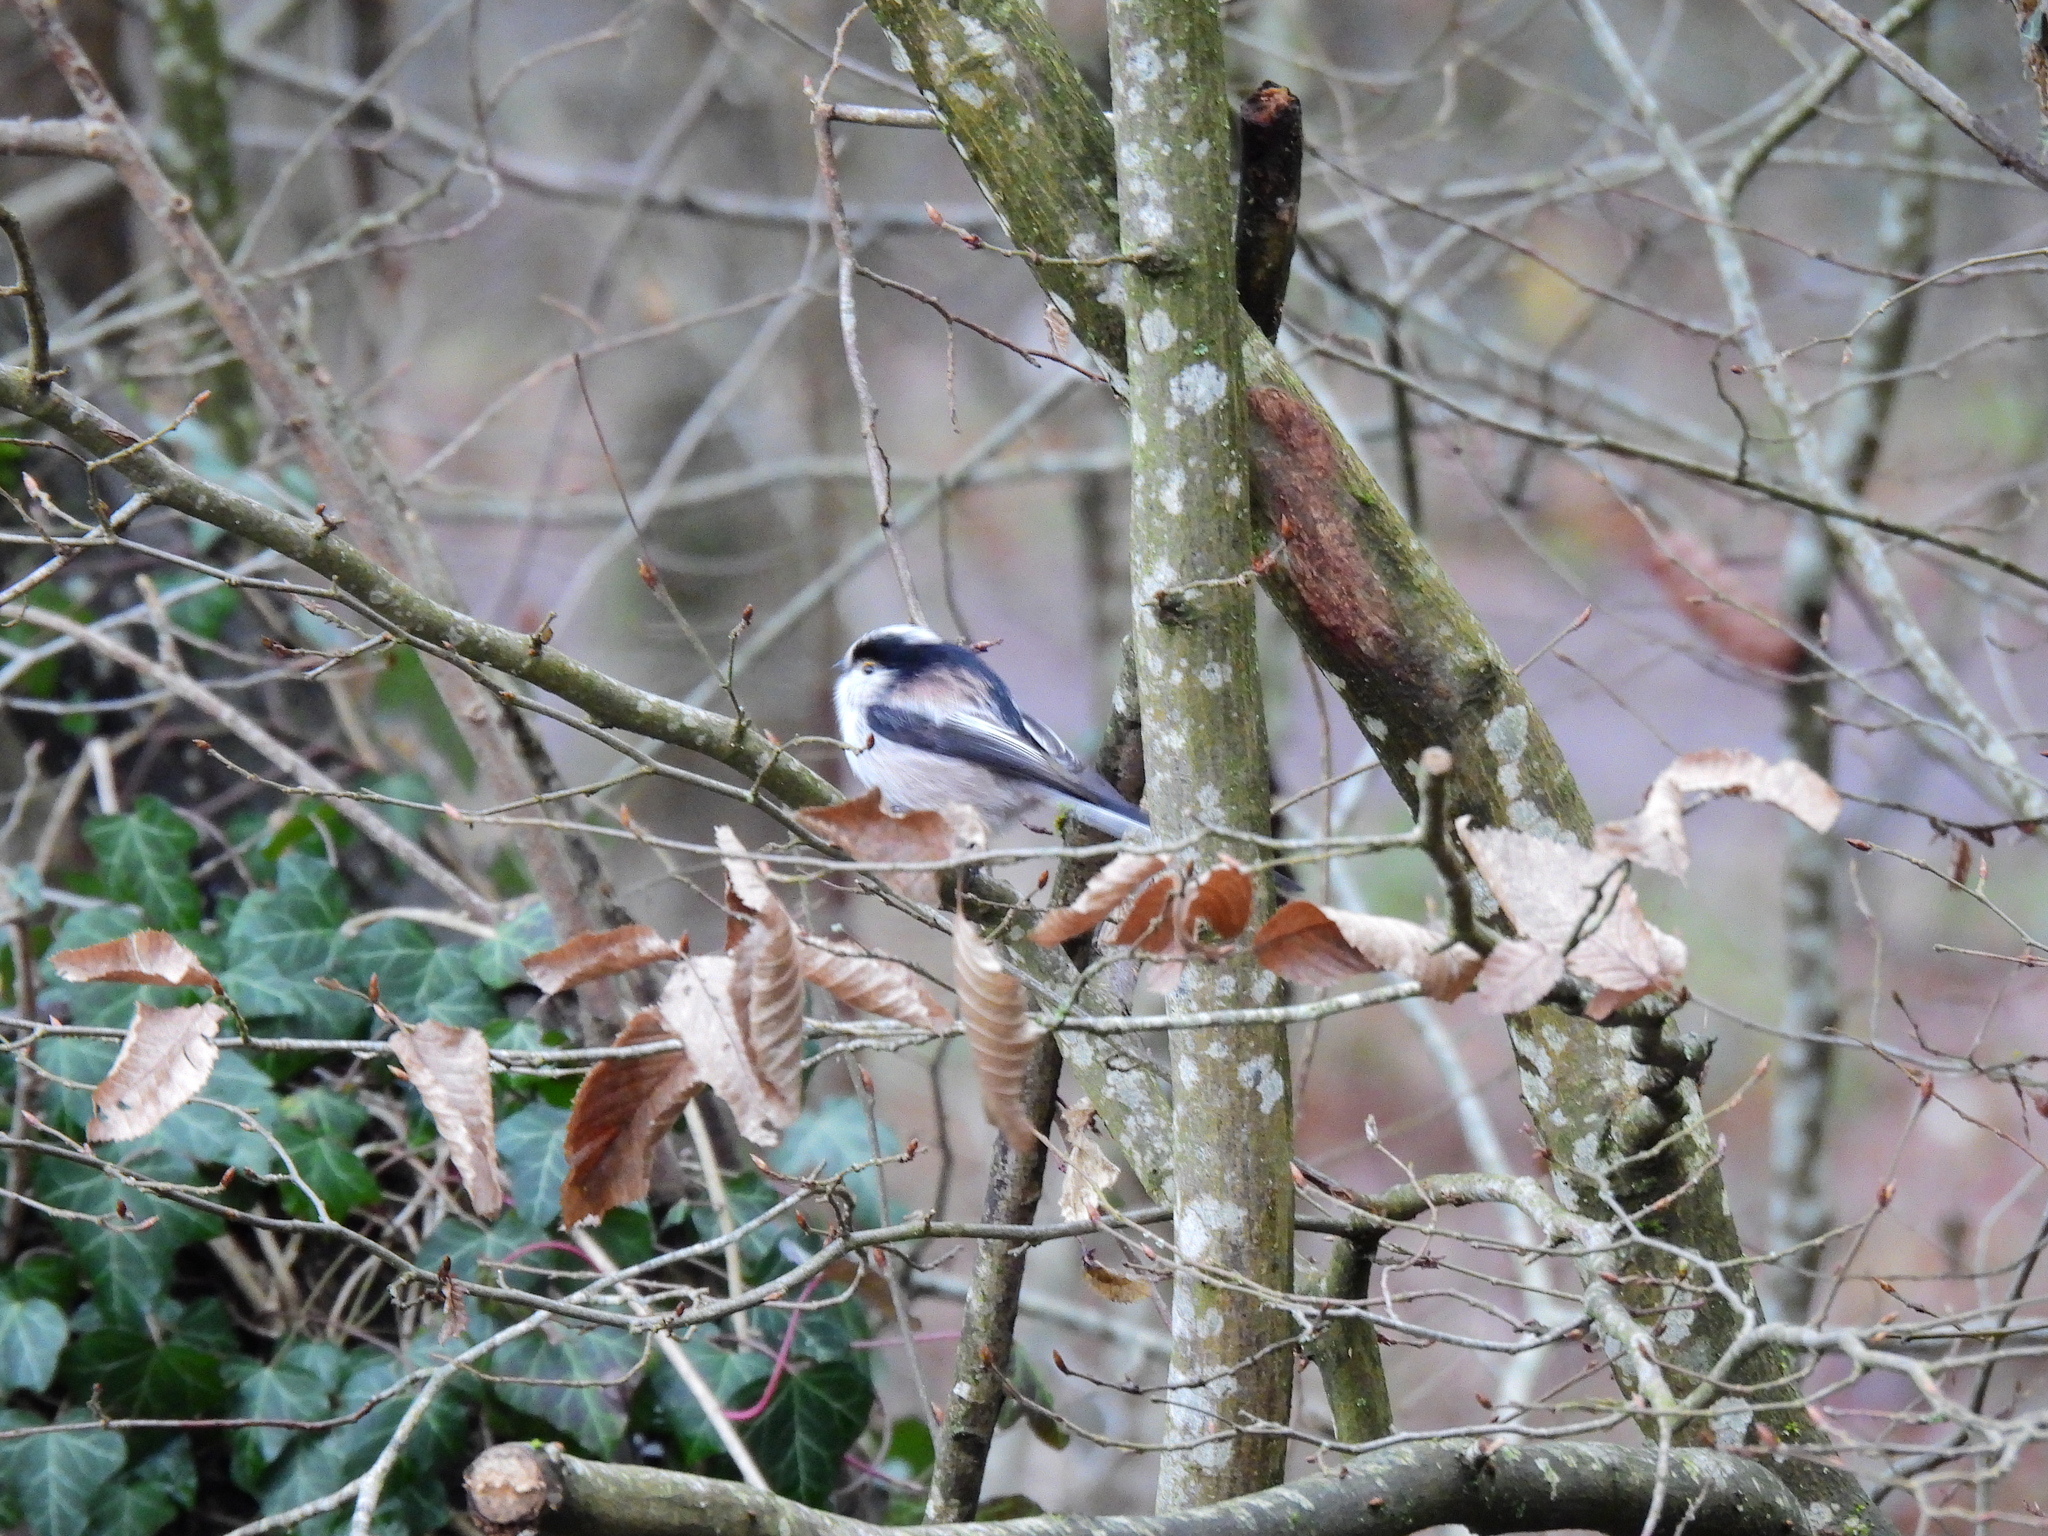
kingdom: Animalia
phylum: Chordata
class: Aves
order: Passeriformes
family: Aegithalidae
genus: Aegithalos
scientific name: Aegithalos caudatus
